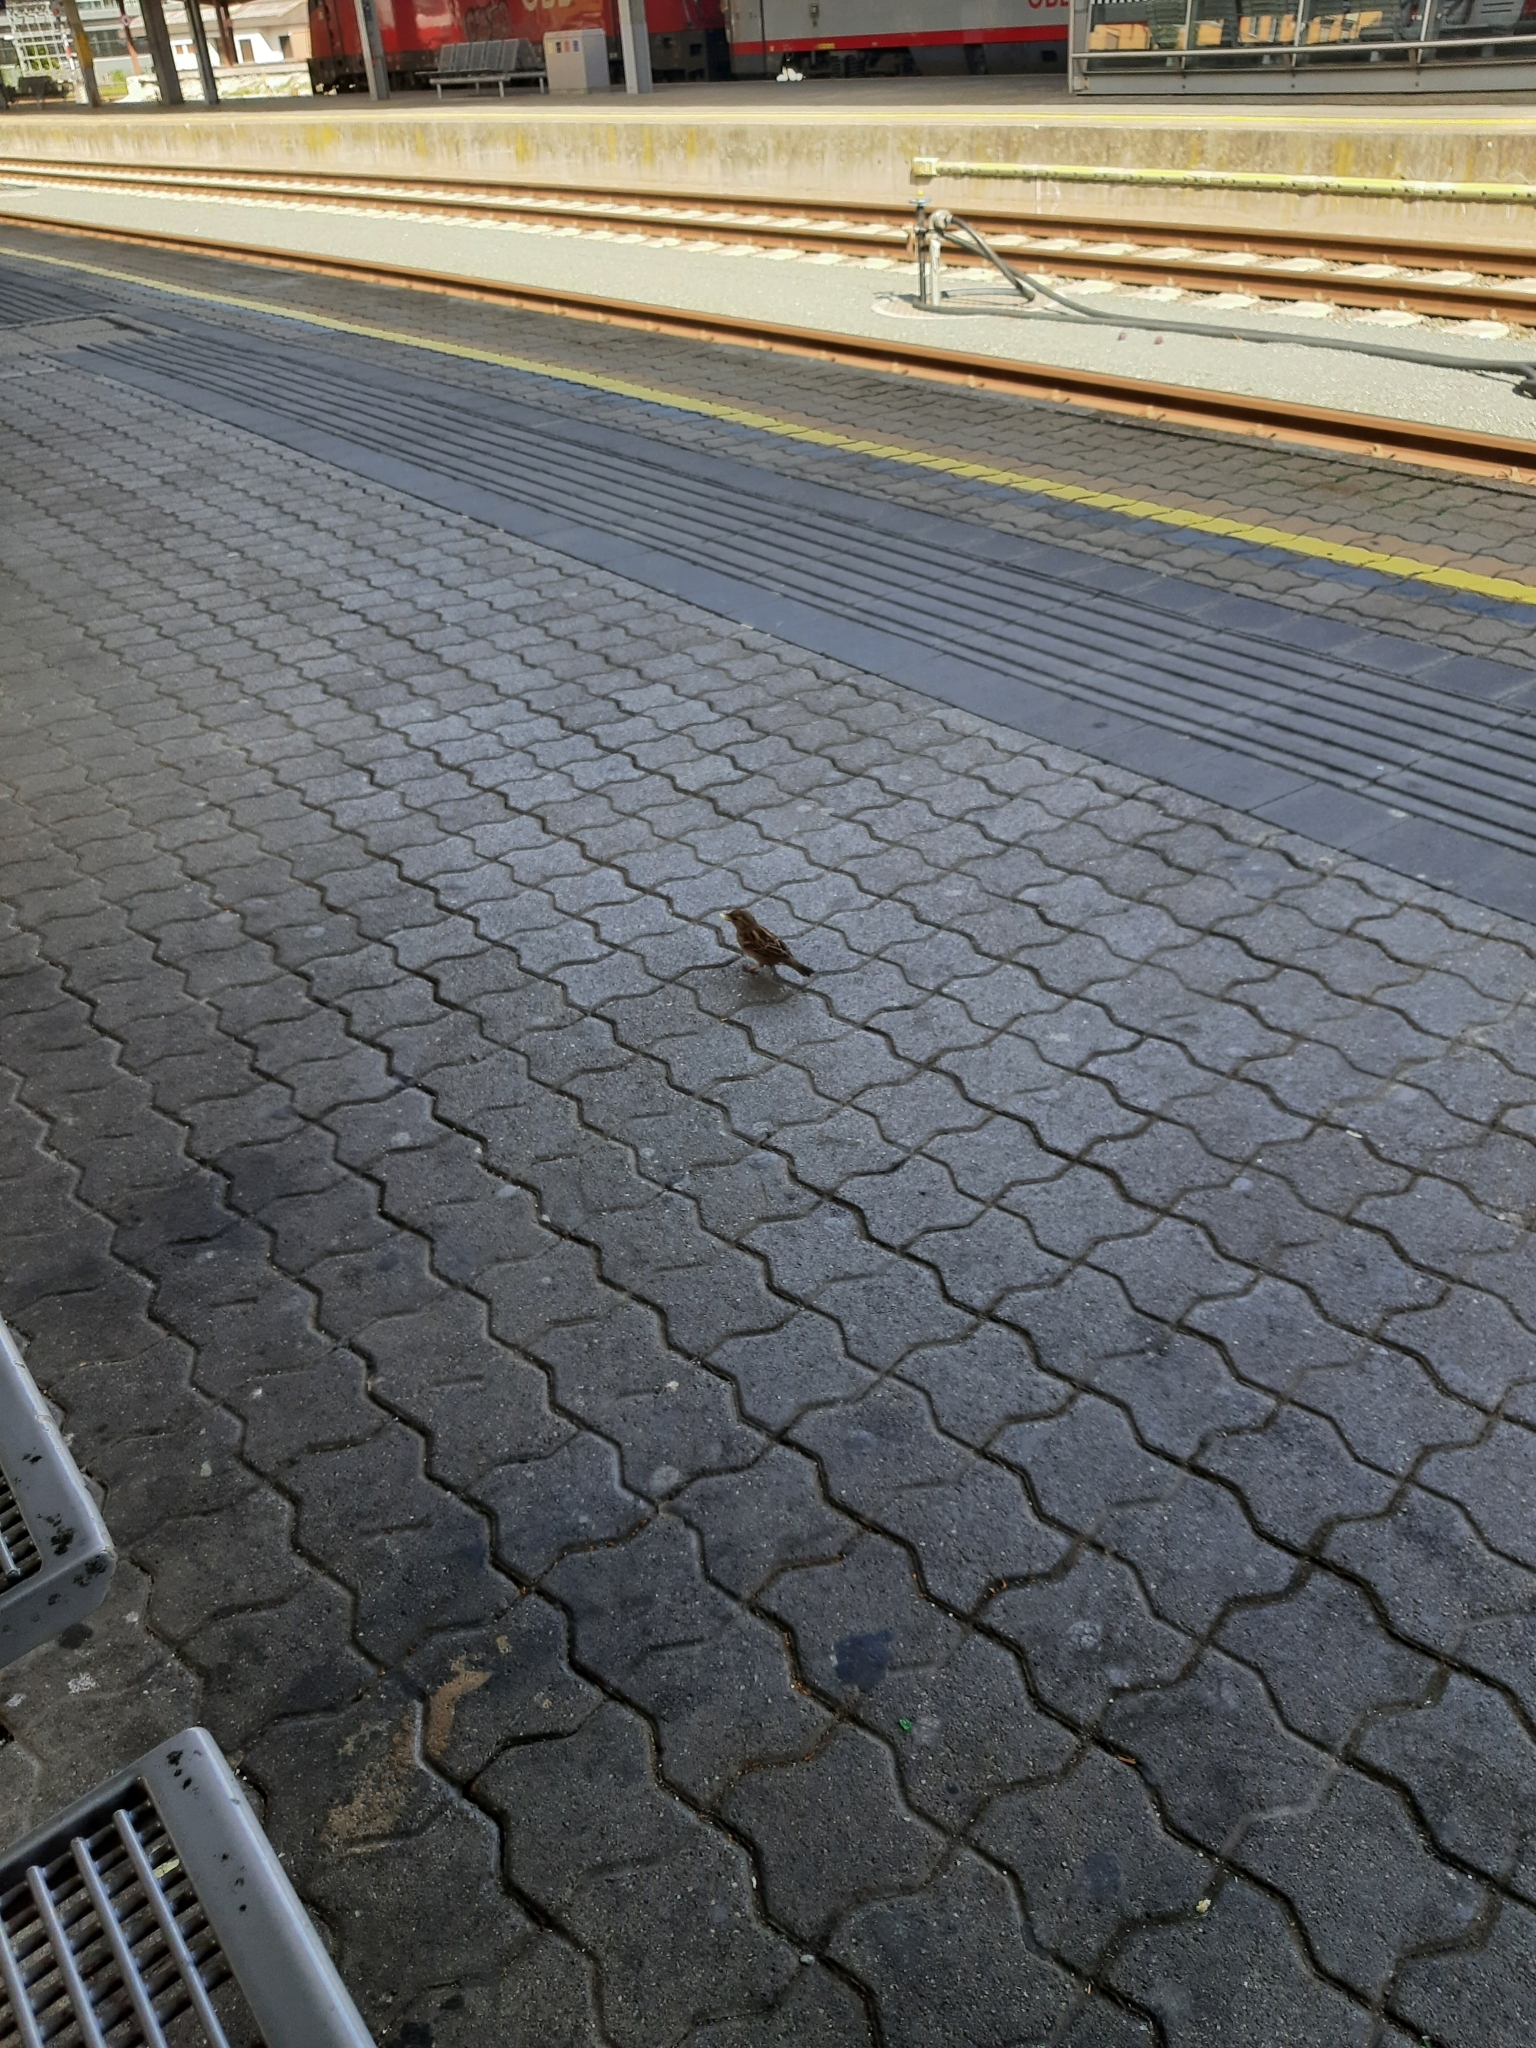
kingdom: Animalia
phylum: Chordata
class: Aves
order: Passeriformes
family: Passeridae
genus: Passer
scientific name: Passer domesticus
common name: House sparrow
